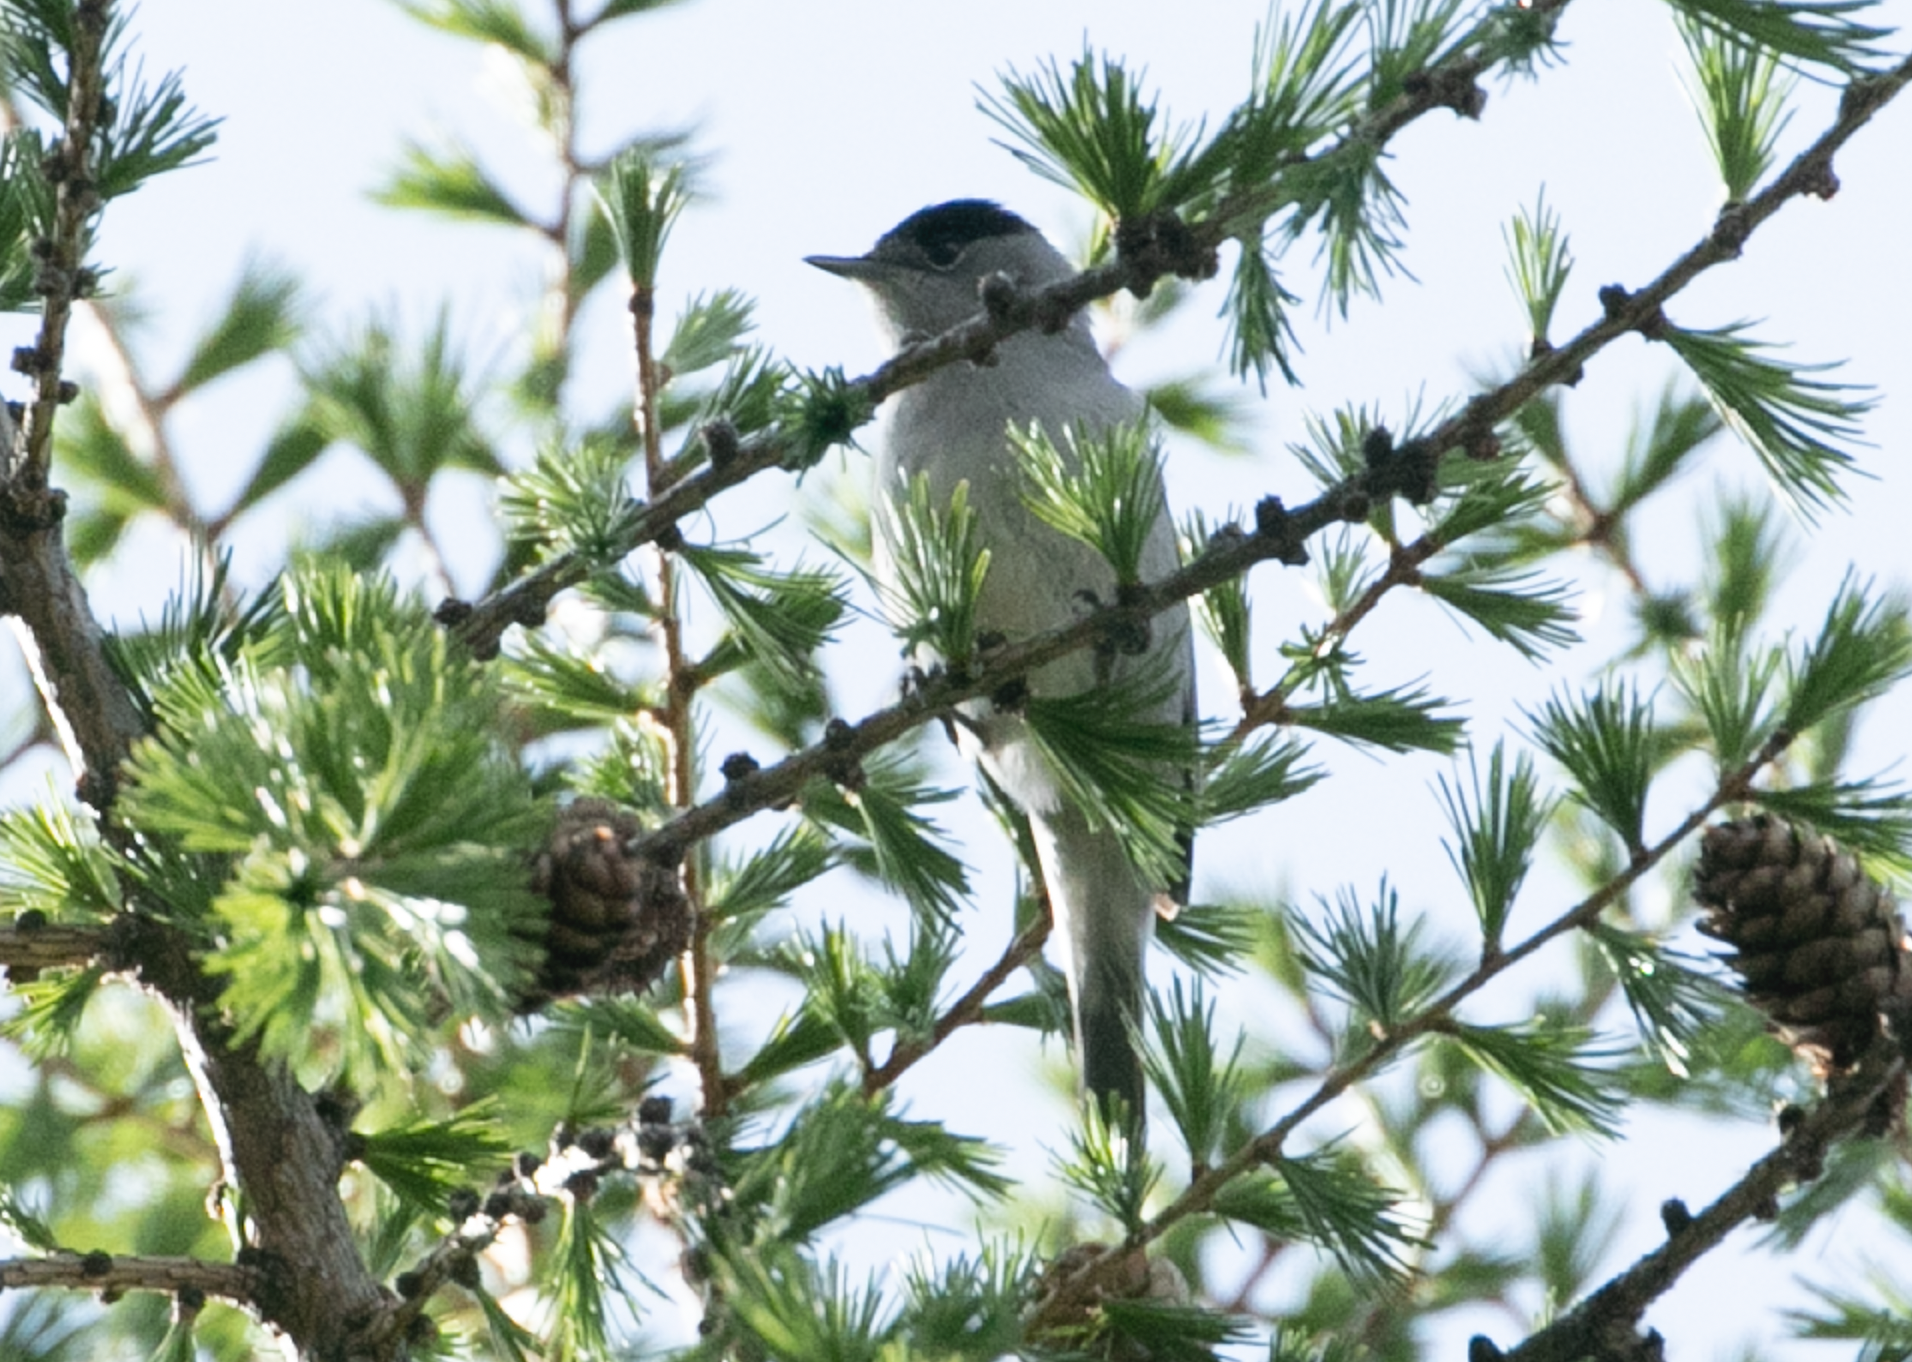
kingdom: Animalia
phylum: Chordata
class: Aves
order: Passeriformes
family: Sylviidae
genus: Sylvia
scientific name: Sylvia atricapilla
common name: Eurasian blackcap
